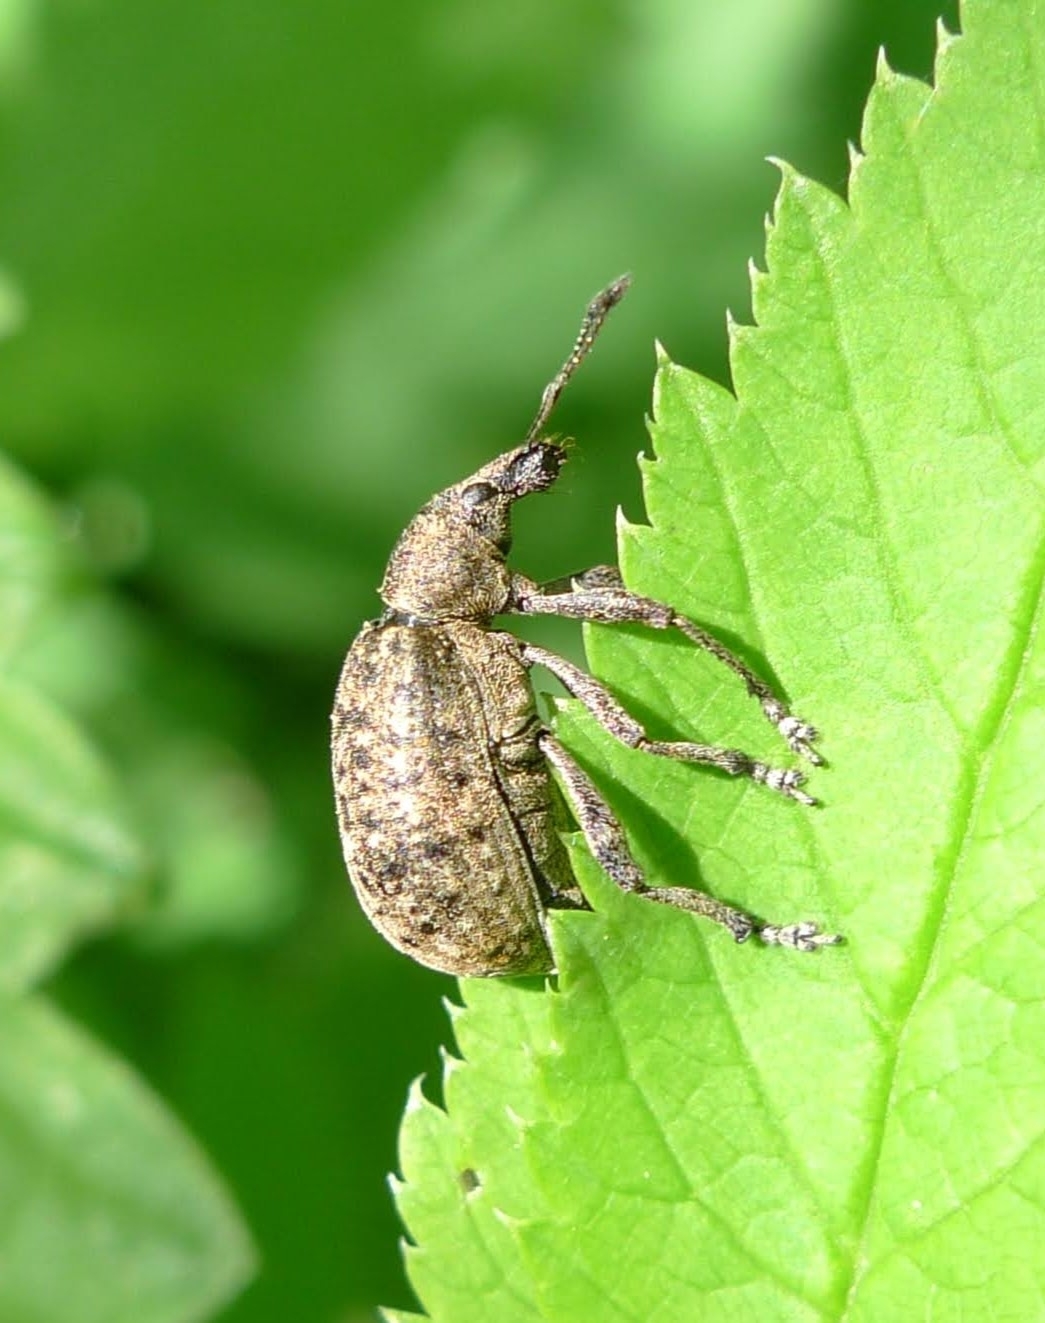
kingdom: Animalia
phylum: Arthropoda
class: Insecta
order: Coleoptera
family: Curculionidae
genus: Liophloeus
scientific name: Liophloeus tessulatus
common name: Weevil
